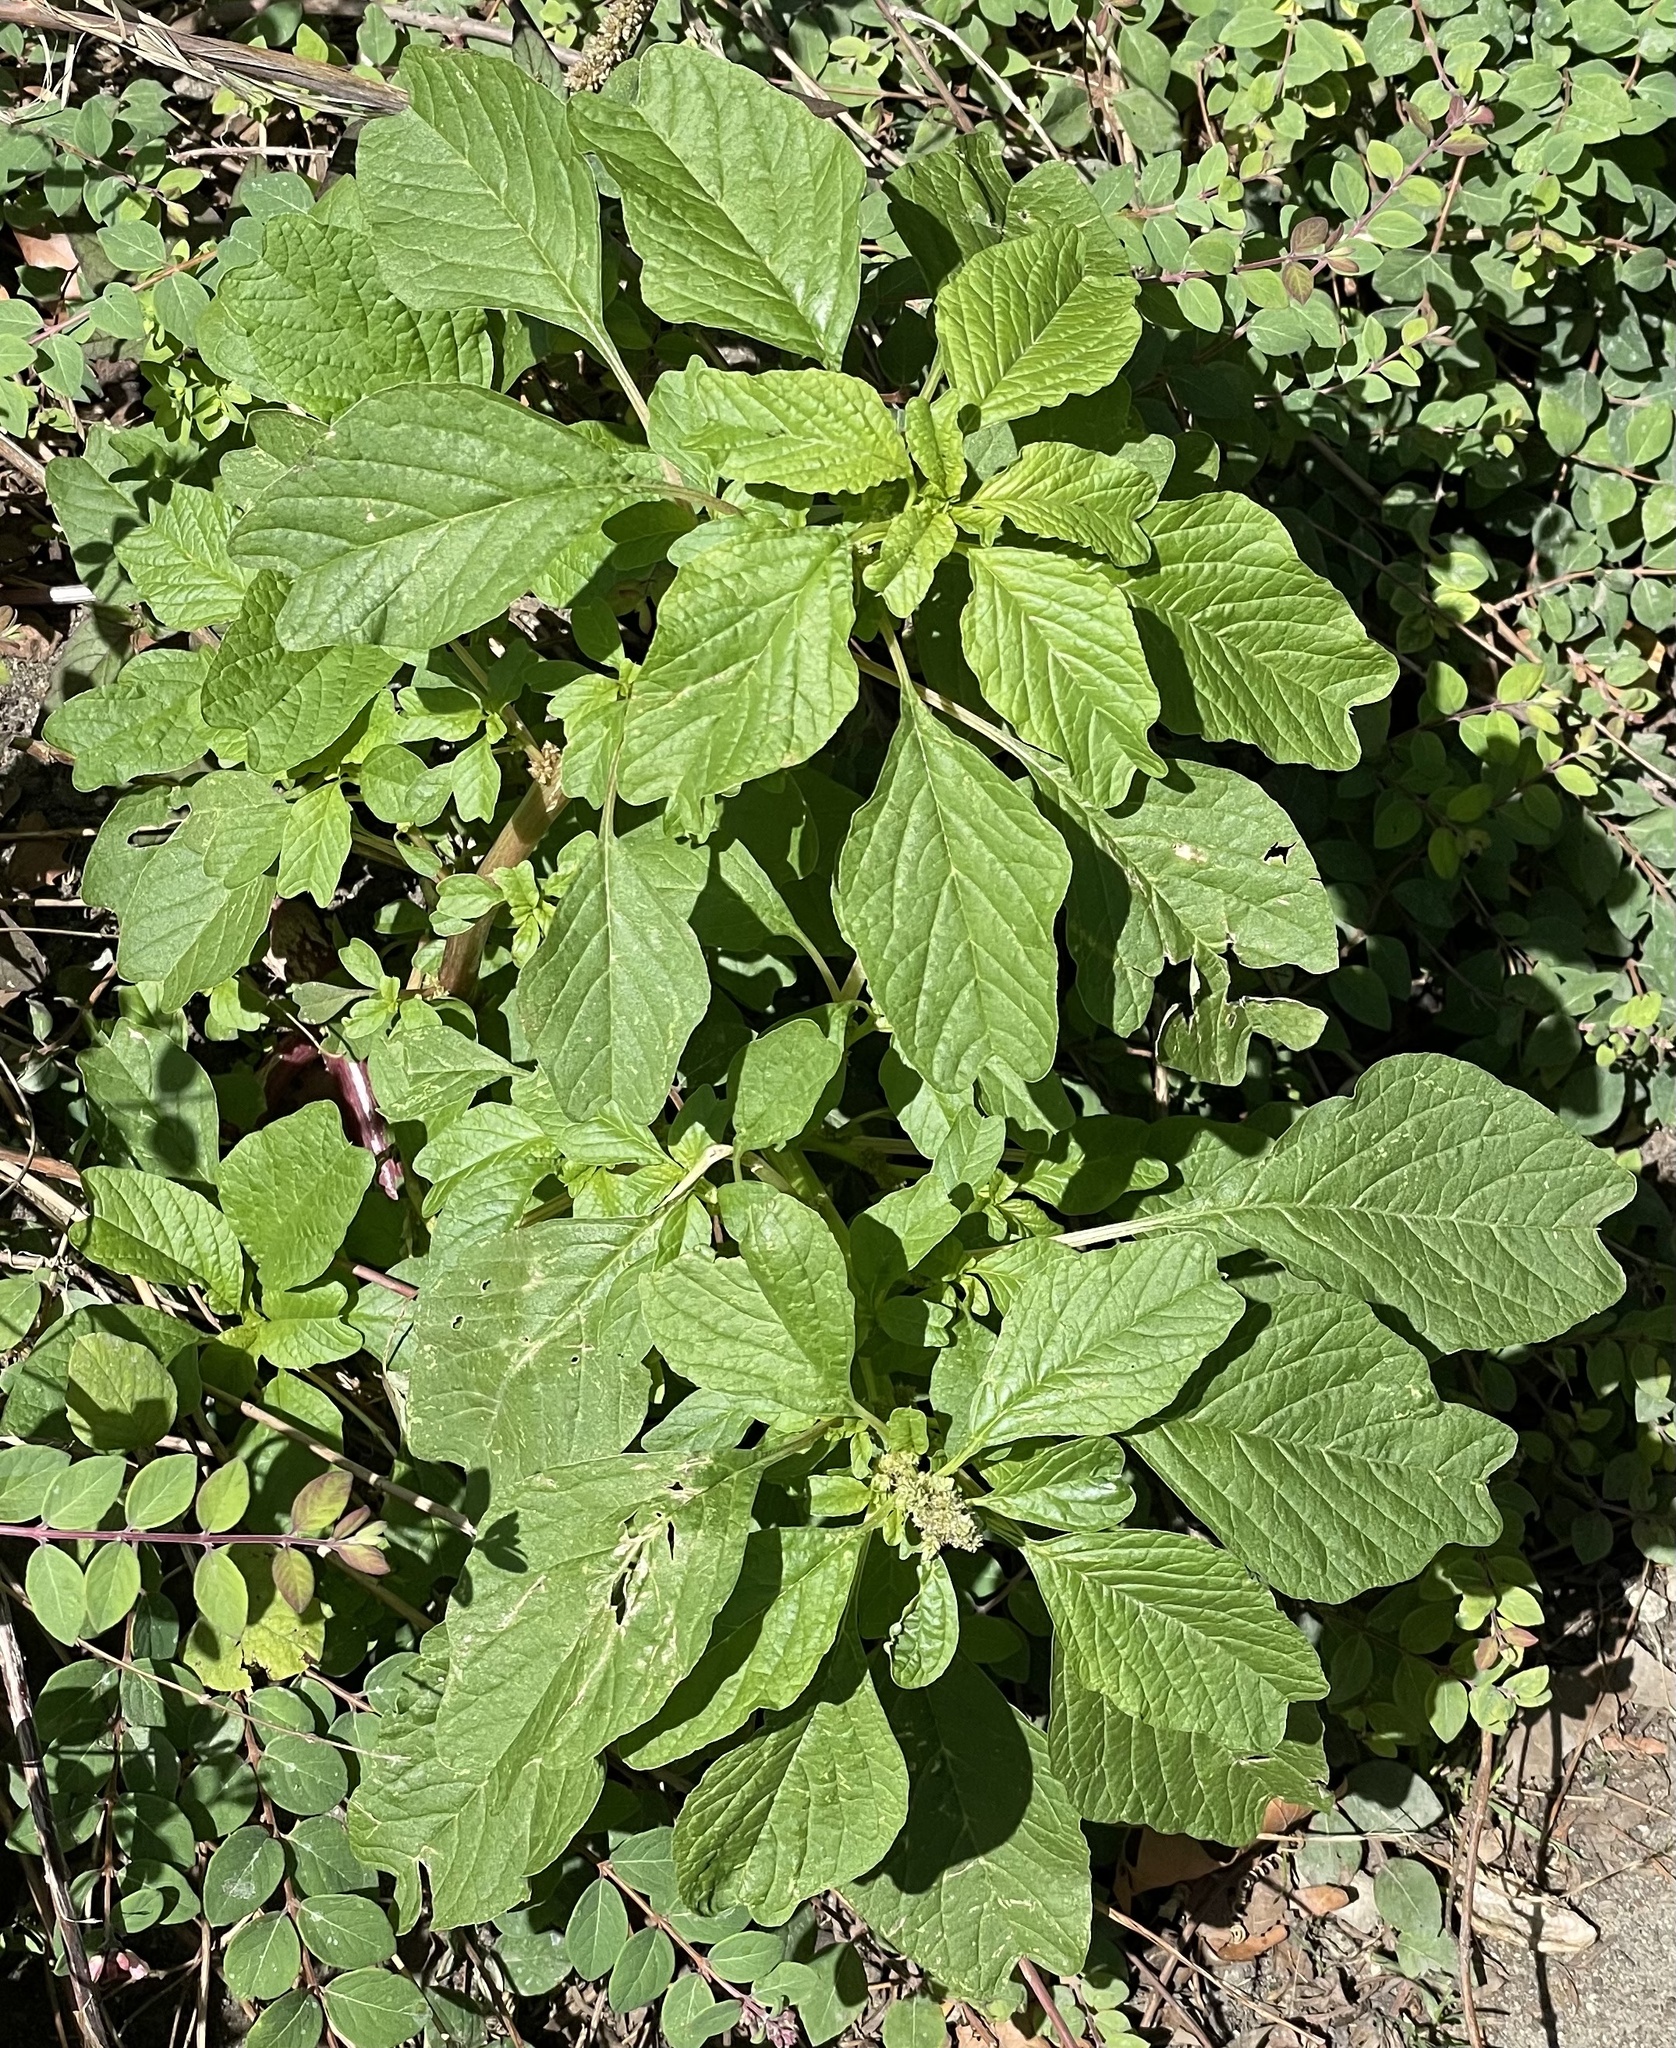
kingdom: Plantae
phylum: Tracheophyta
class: Magnoliopsida
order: Caryophyllales
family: Amaranthaceae
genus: Amaranthus
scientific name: Amaranthus emarginatus
